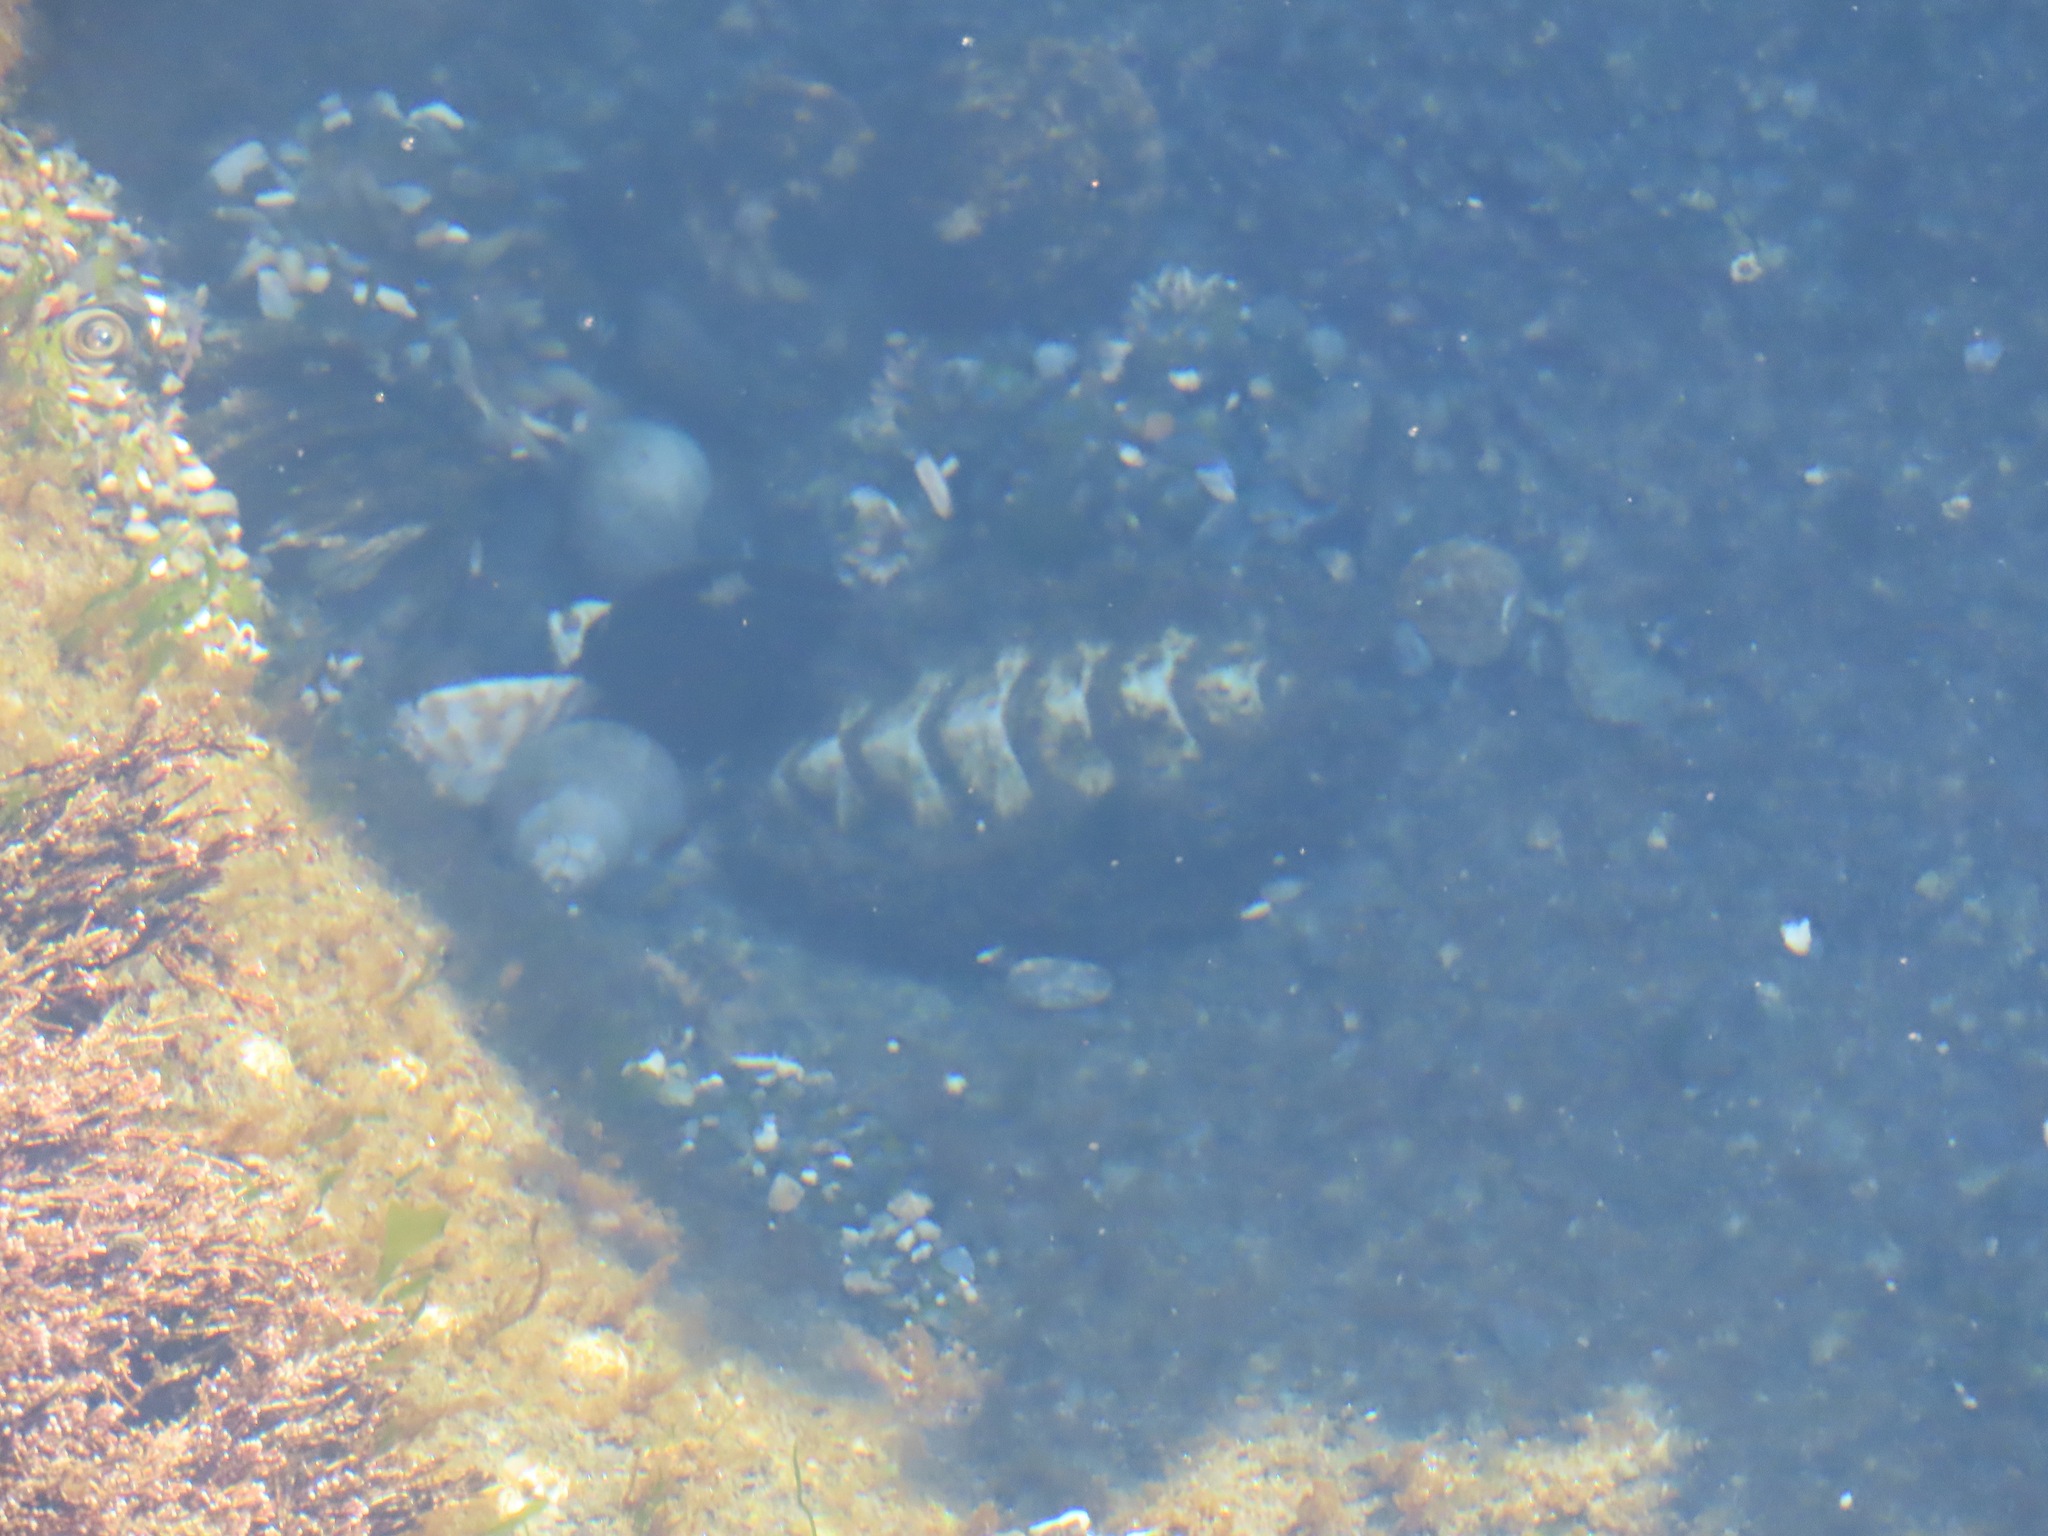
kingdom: Animalia
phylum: Mollusca
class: Polyplacophora
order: Chitonida
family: Mopaliidae
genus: Mopalia
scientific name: Mopalia muscosa
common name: Mossy chiton
